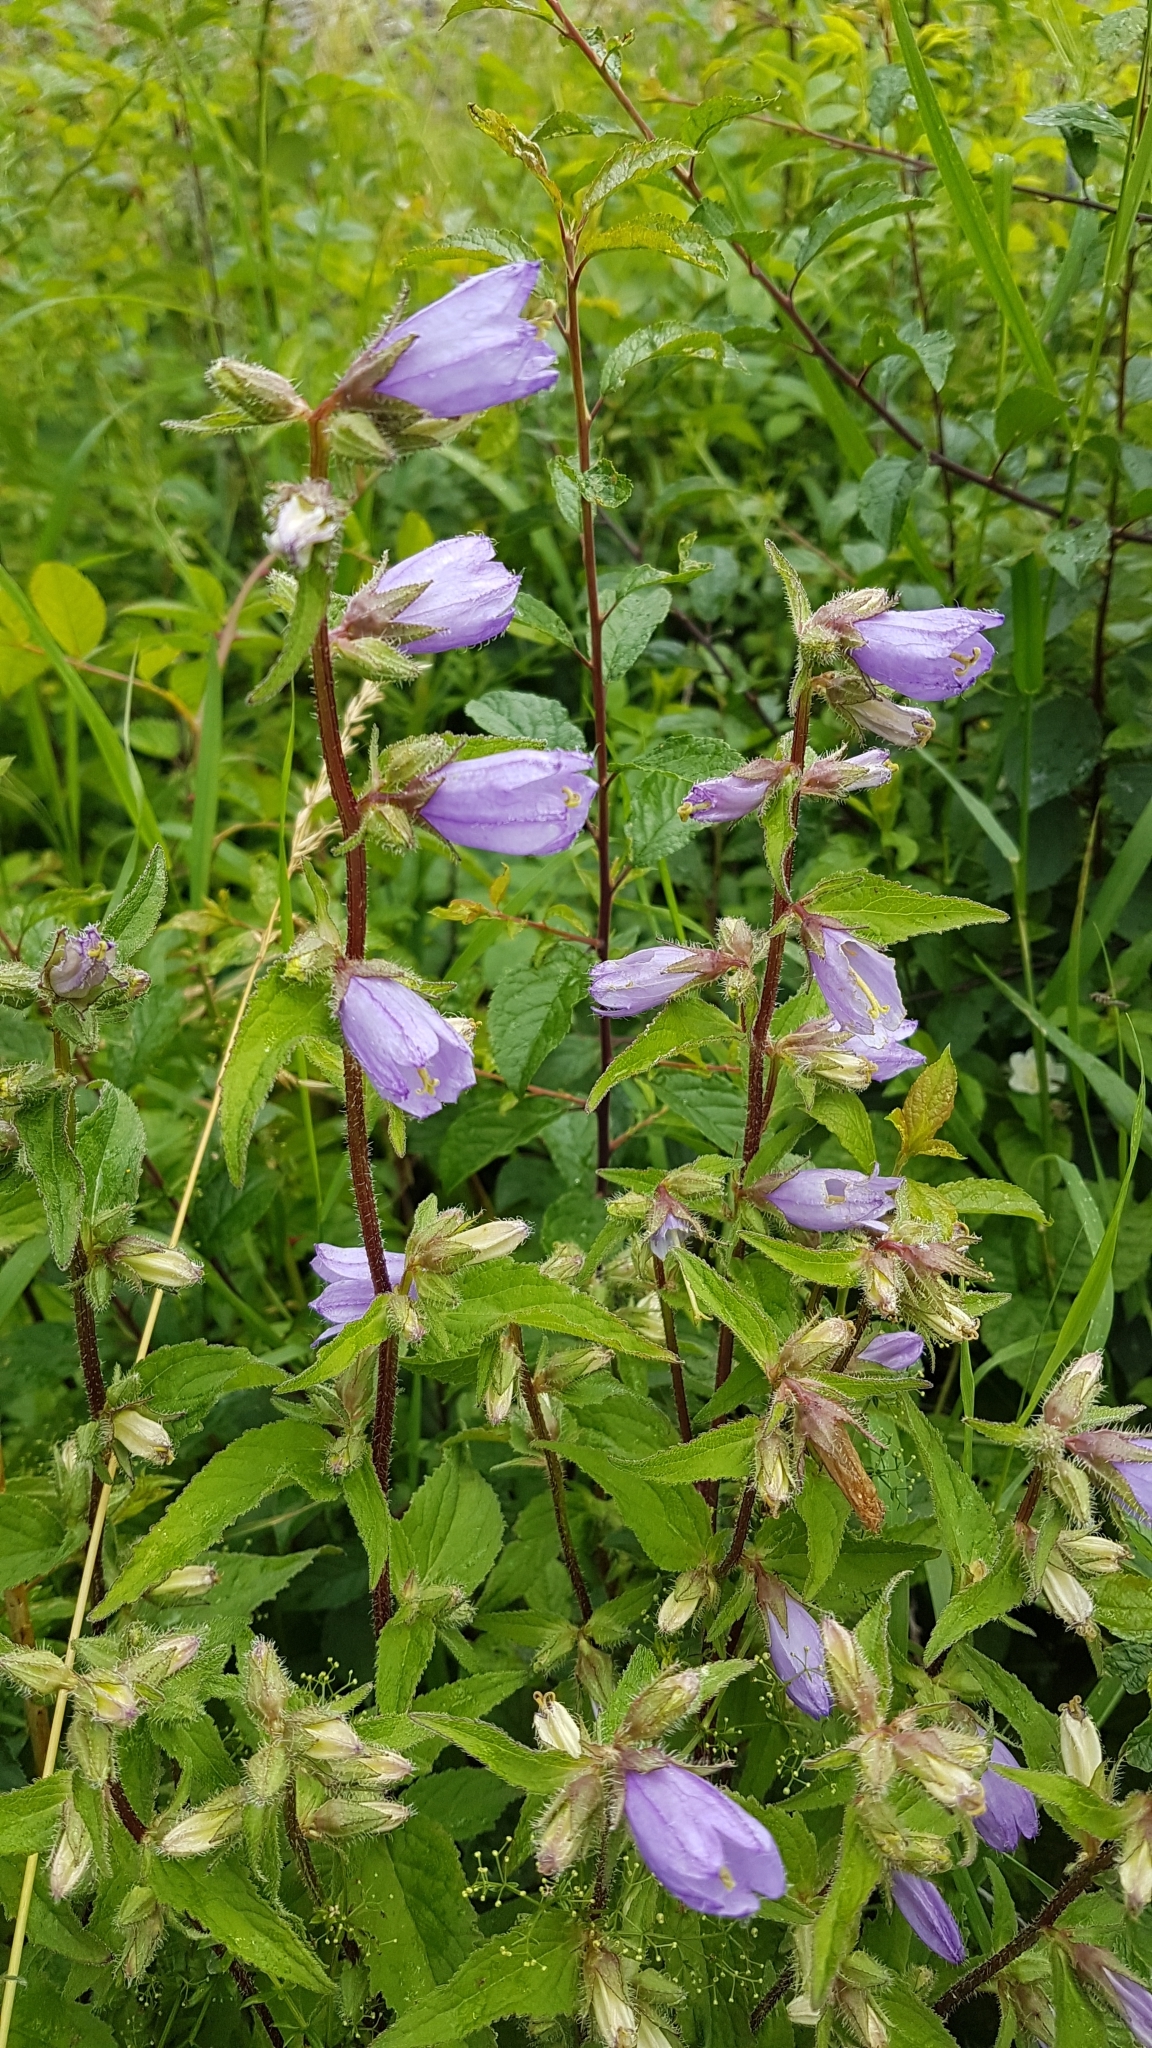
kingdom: Plantae
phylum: Tracheophyta
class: Magnoliopsida
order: Asterales
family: Campanulaceae
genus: Campanula
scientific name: Campanula trachelium
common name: Nettle-leaved bellflower
